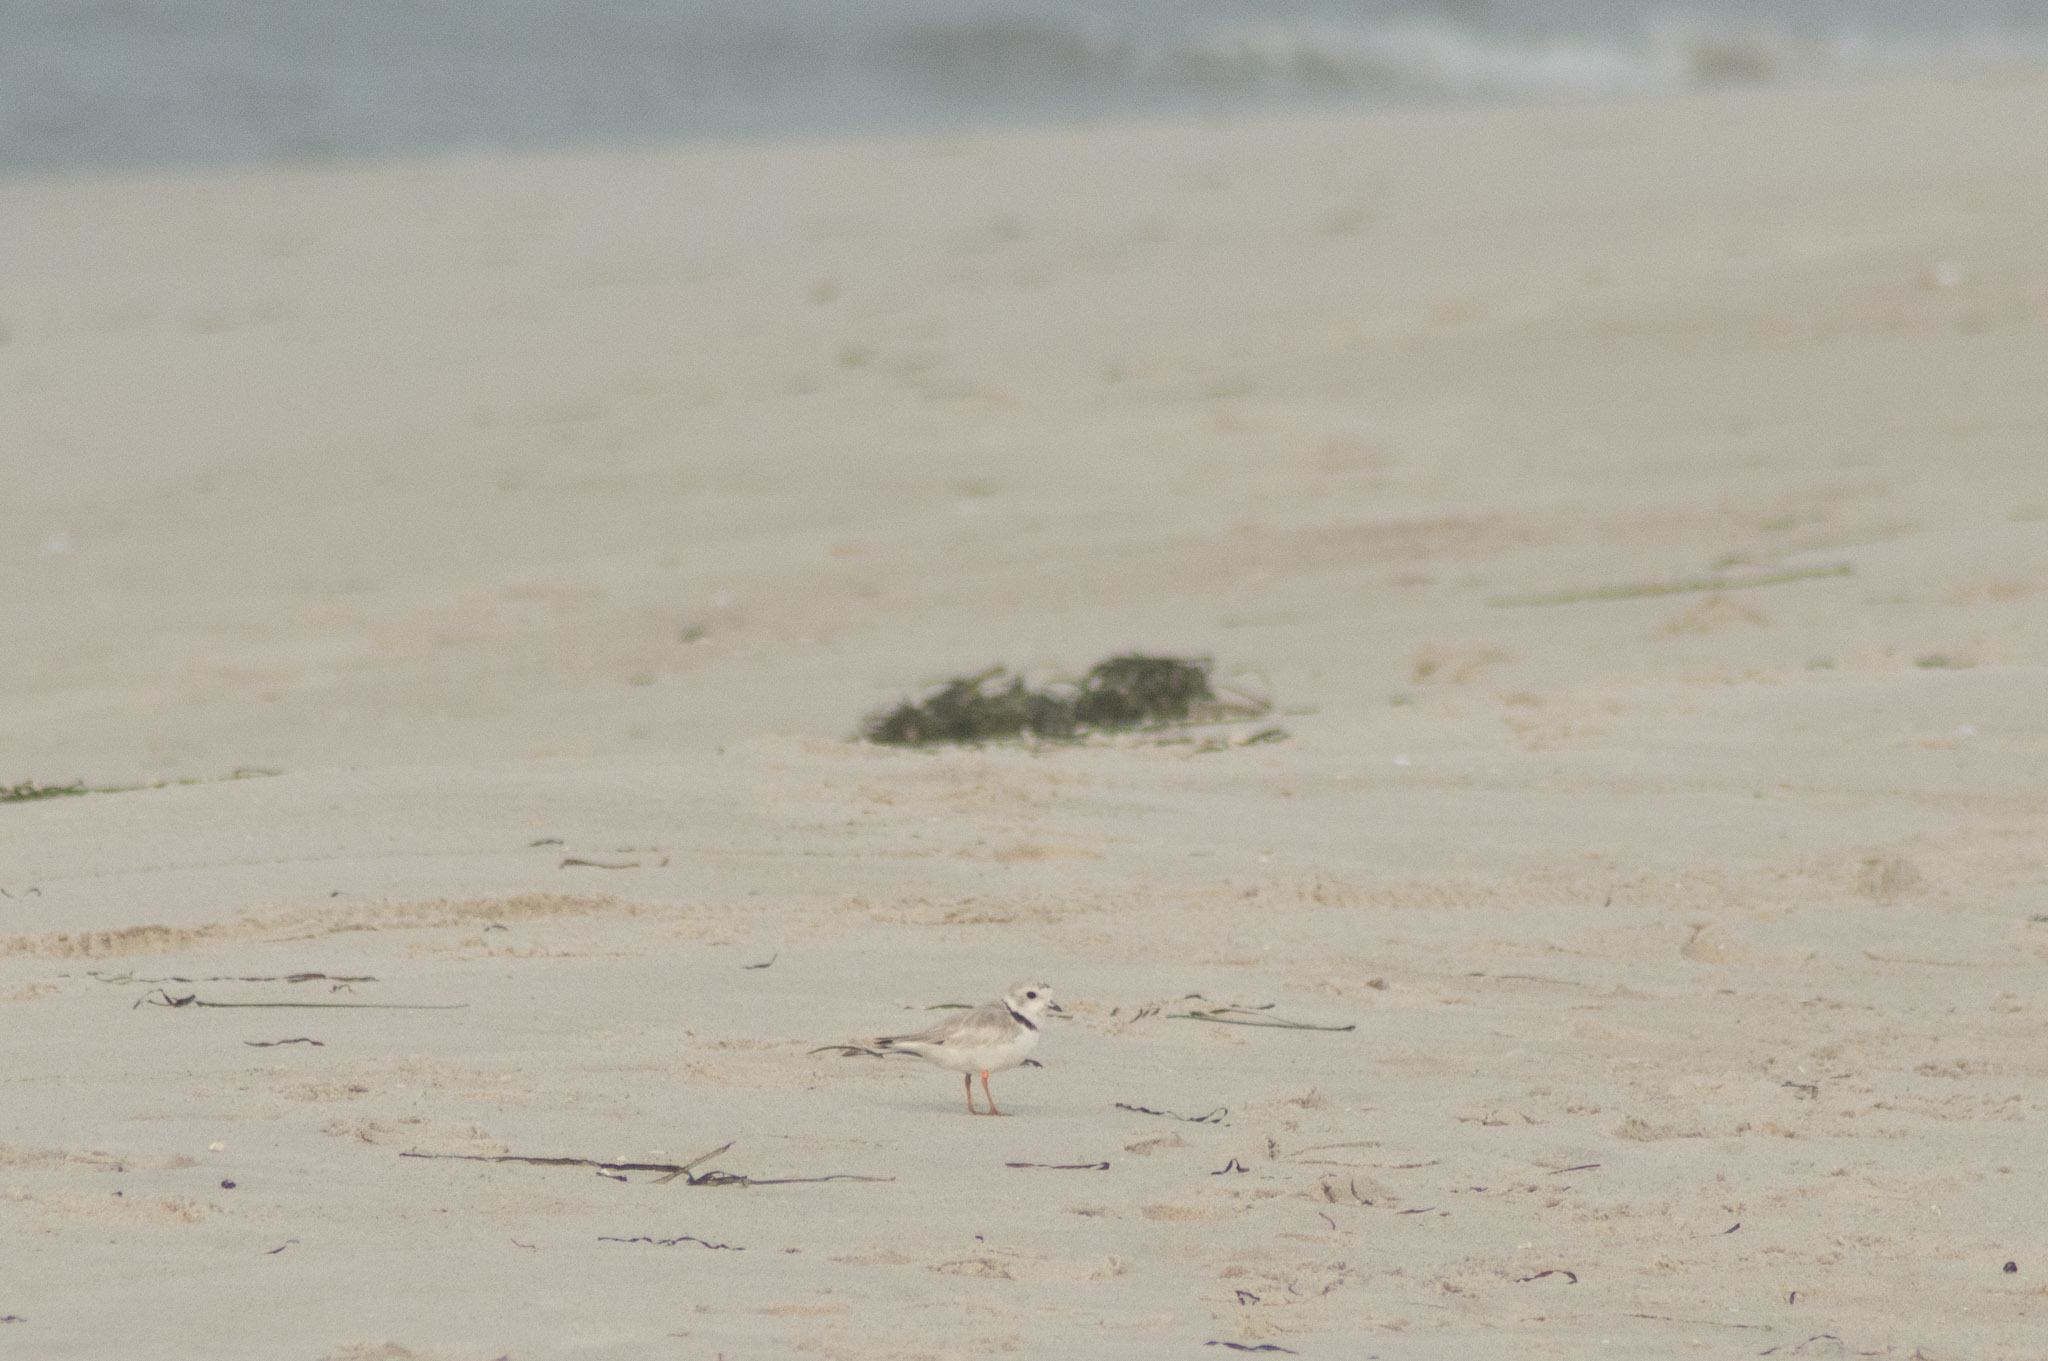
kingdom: Animalia
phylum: Chordata
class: Aves
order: Charadriiformes
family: Charadriidae
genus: Charadrius
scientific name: Charadrius melodus
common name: Piping plover
